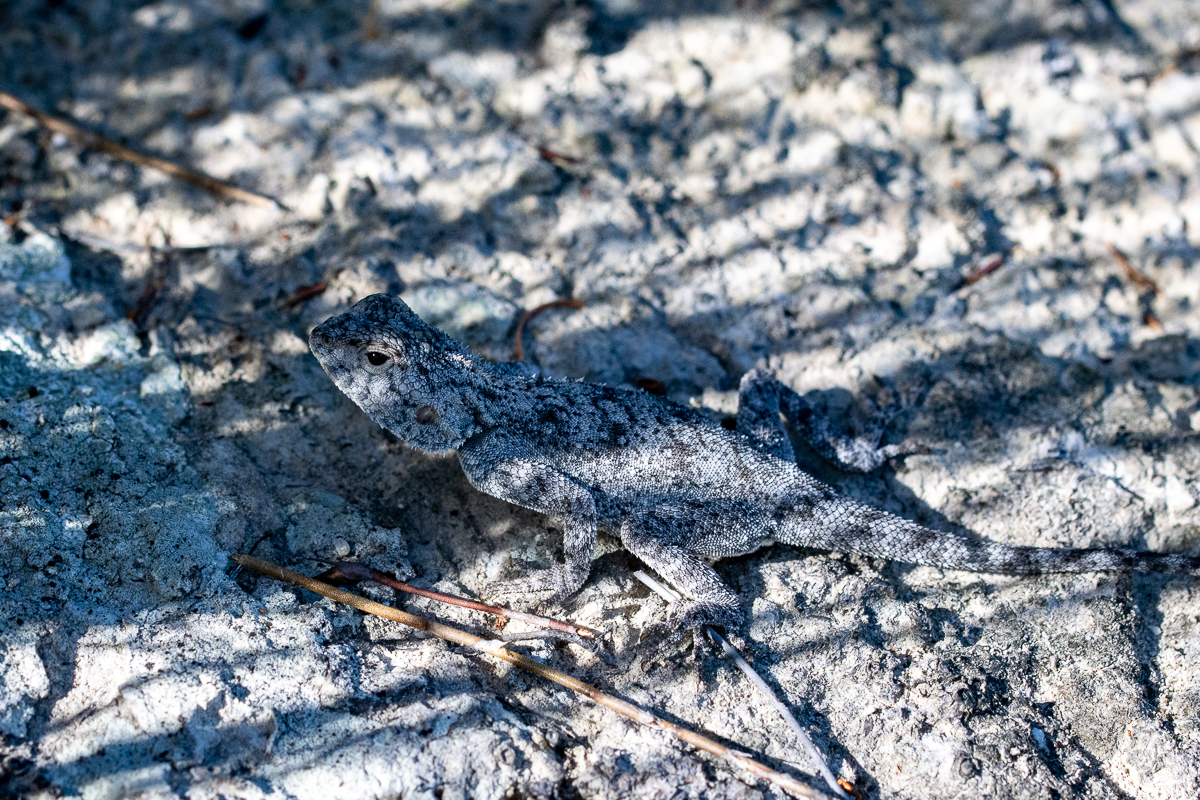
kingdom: Animalia
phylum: Chordata
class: Squamata
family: Agamidae
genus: Agama
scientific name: Agama atra
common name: Southern african rock agama
